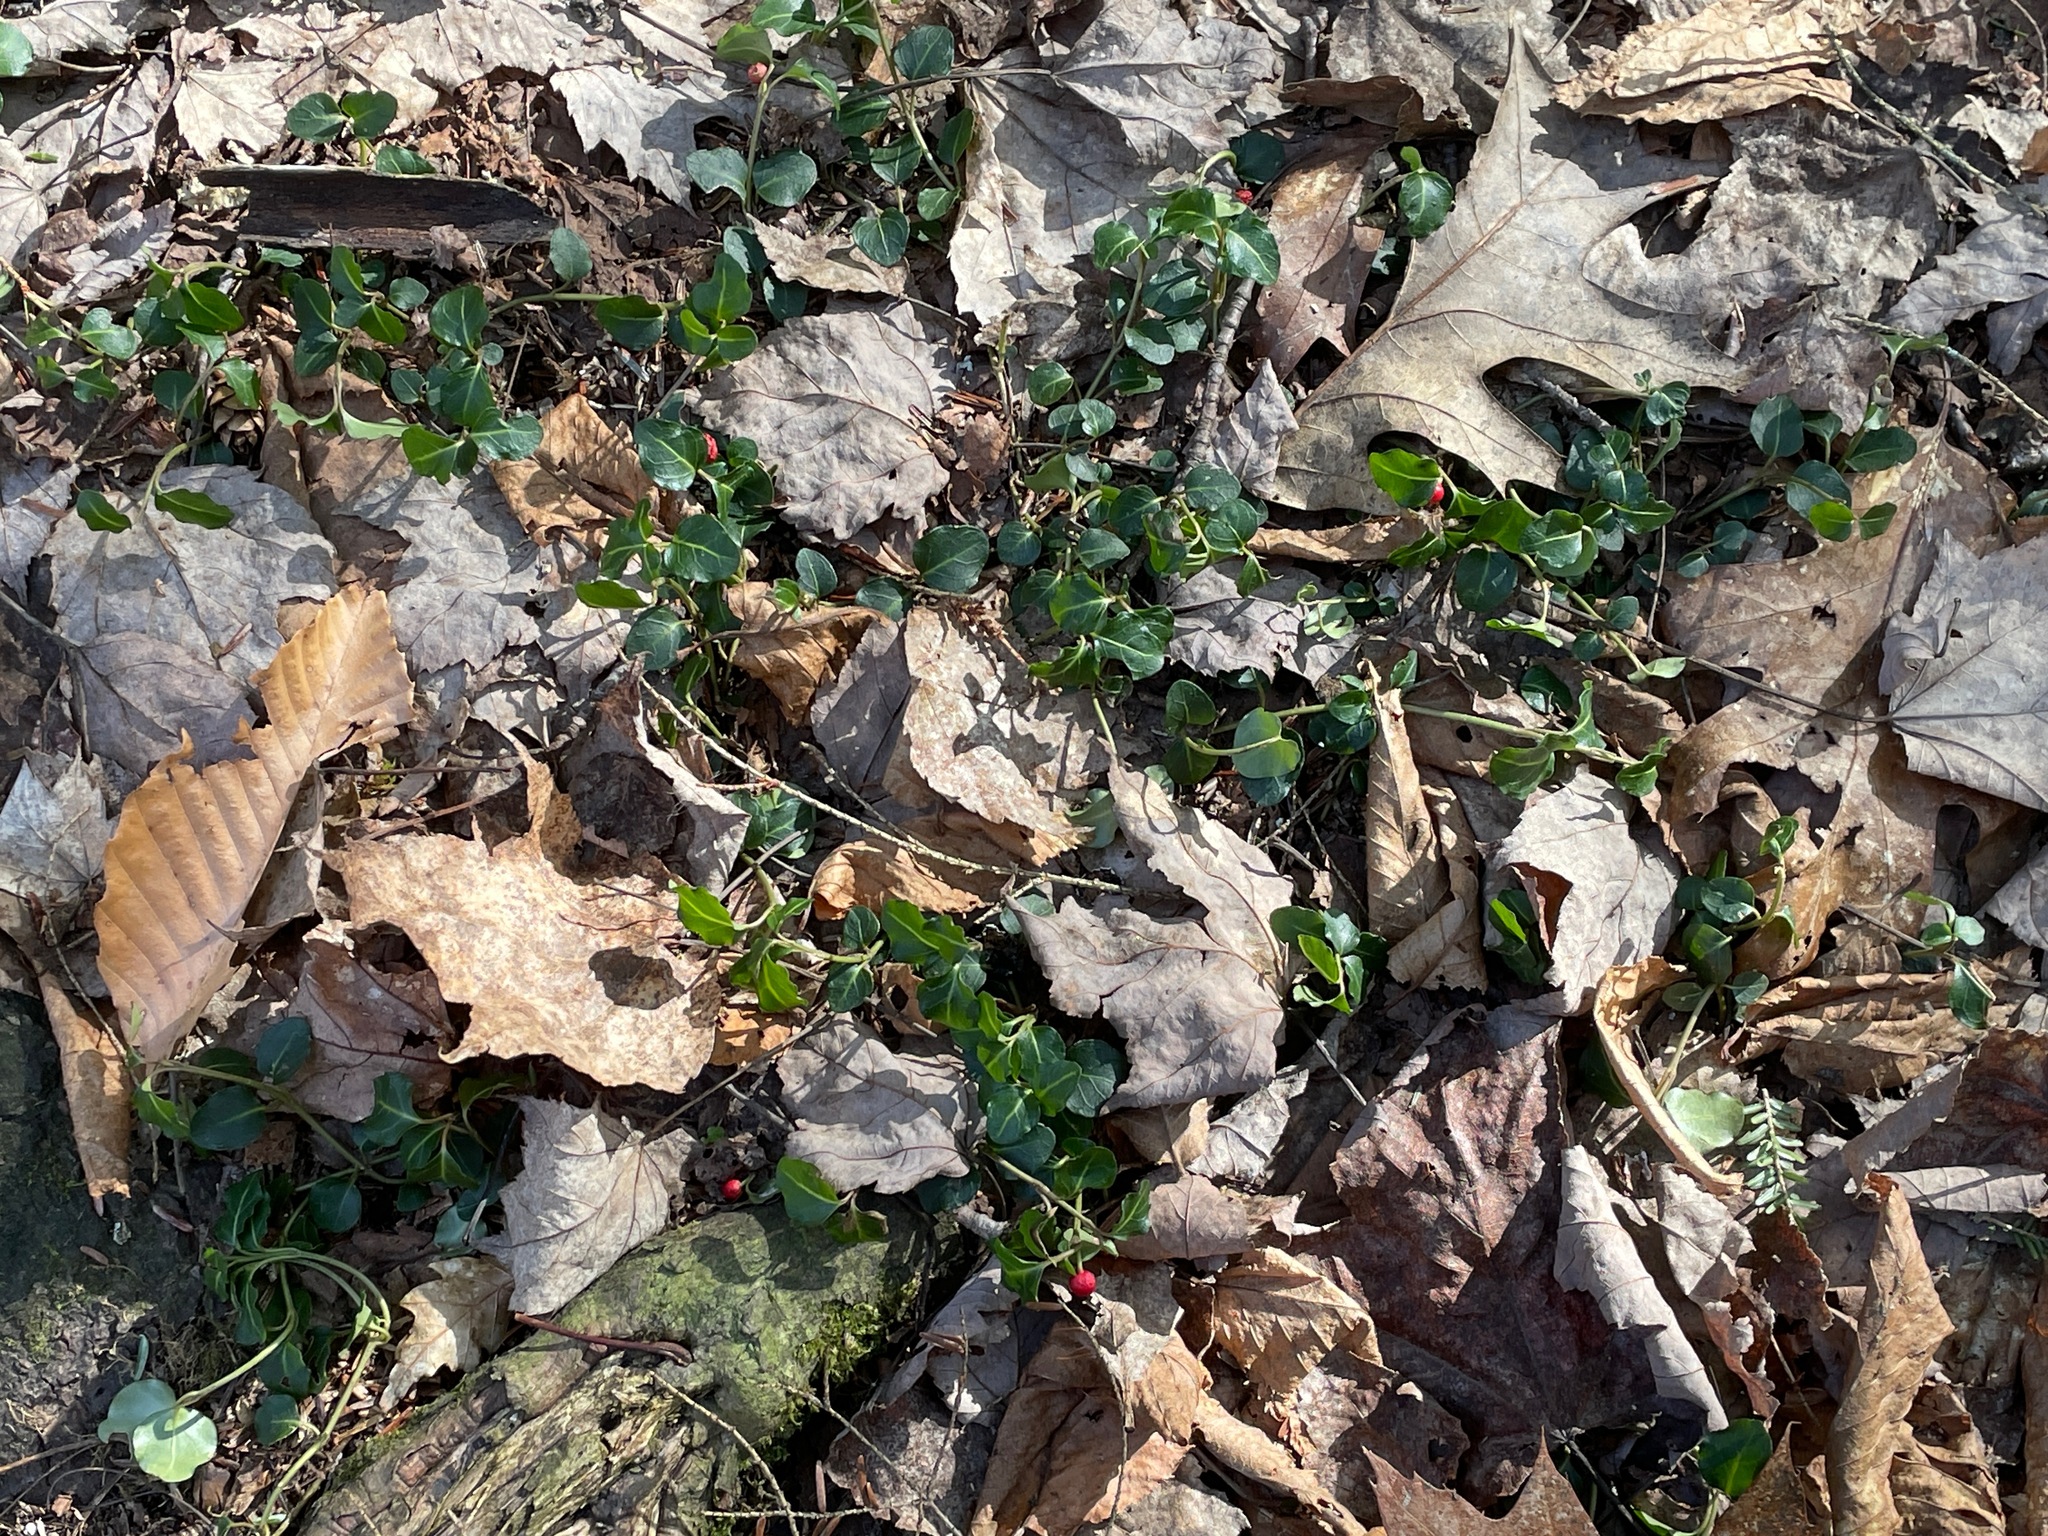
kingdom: Plantae
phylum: Tracheophyta
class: Magnoliopsida
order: Gentianales
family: Rubiaceae
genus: Mitchella
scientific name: Mitchella repens
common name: Partridge-berry
